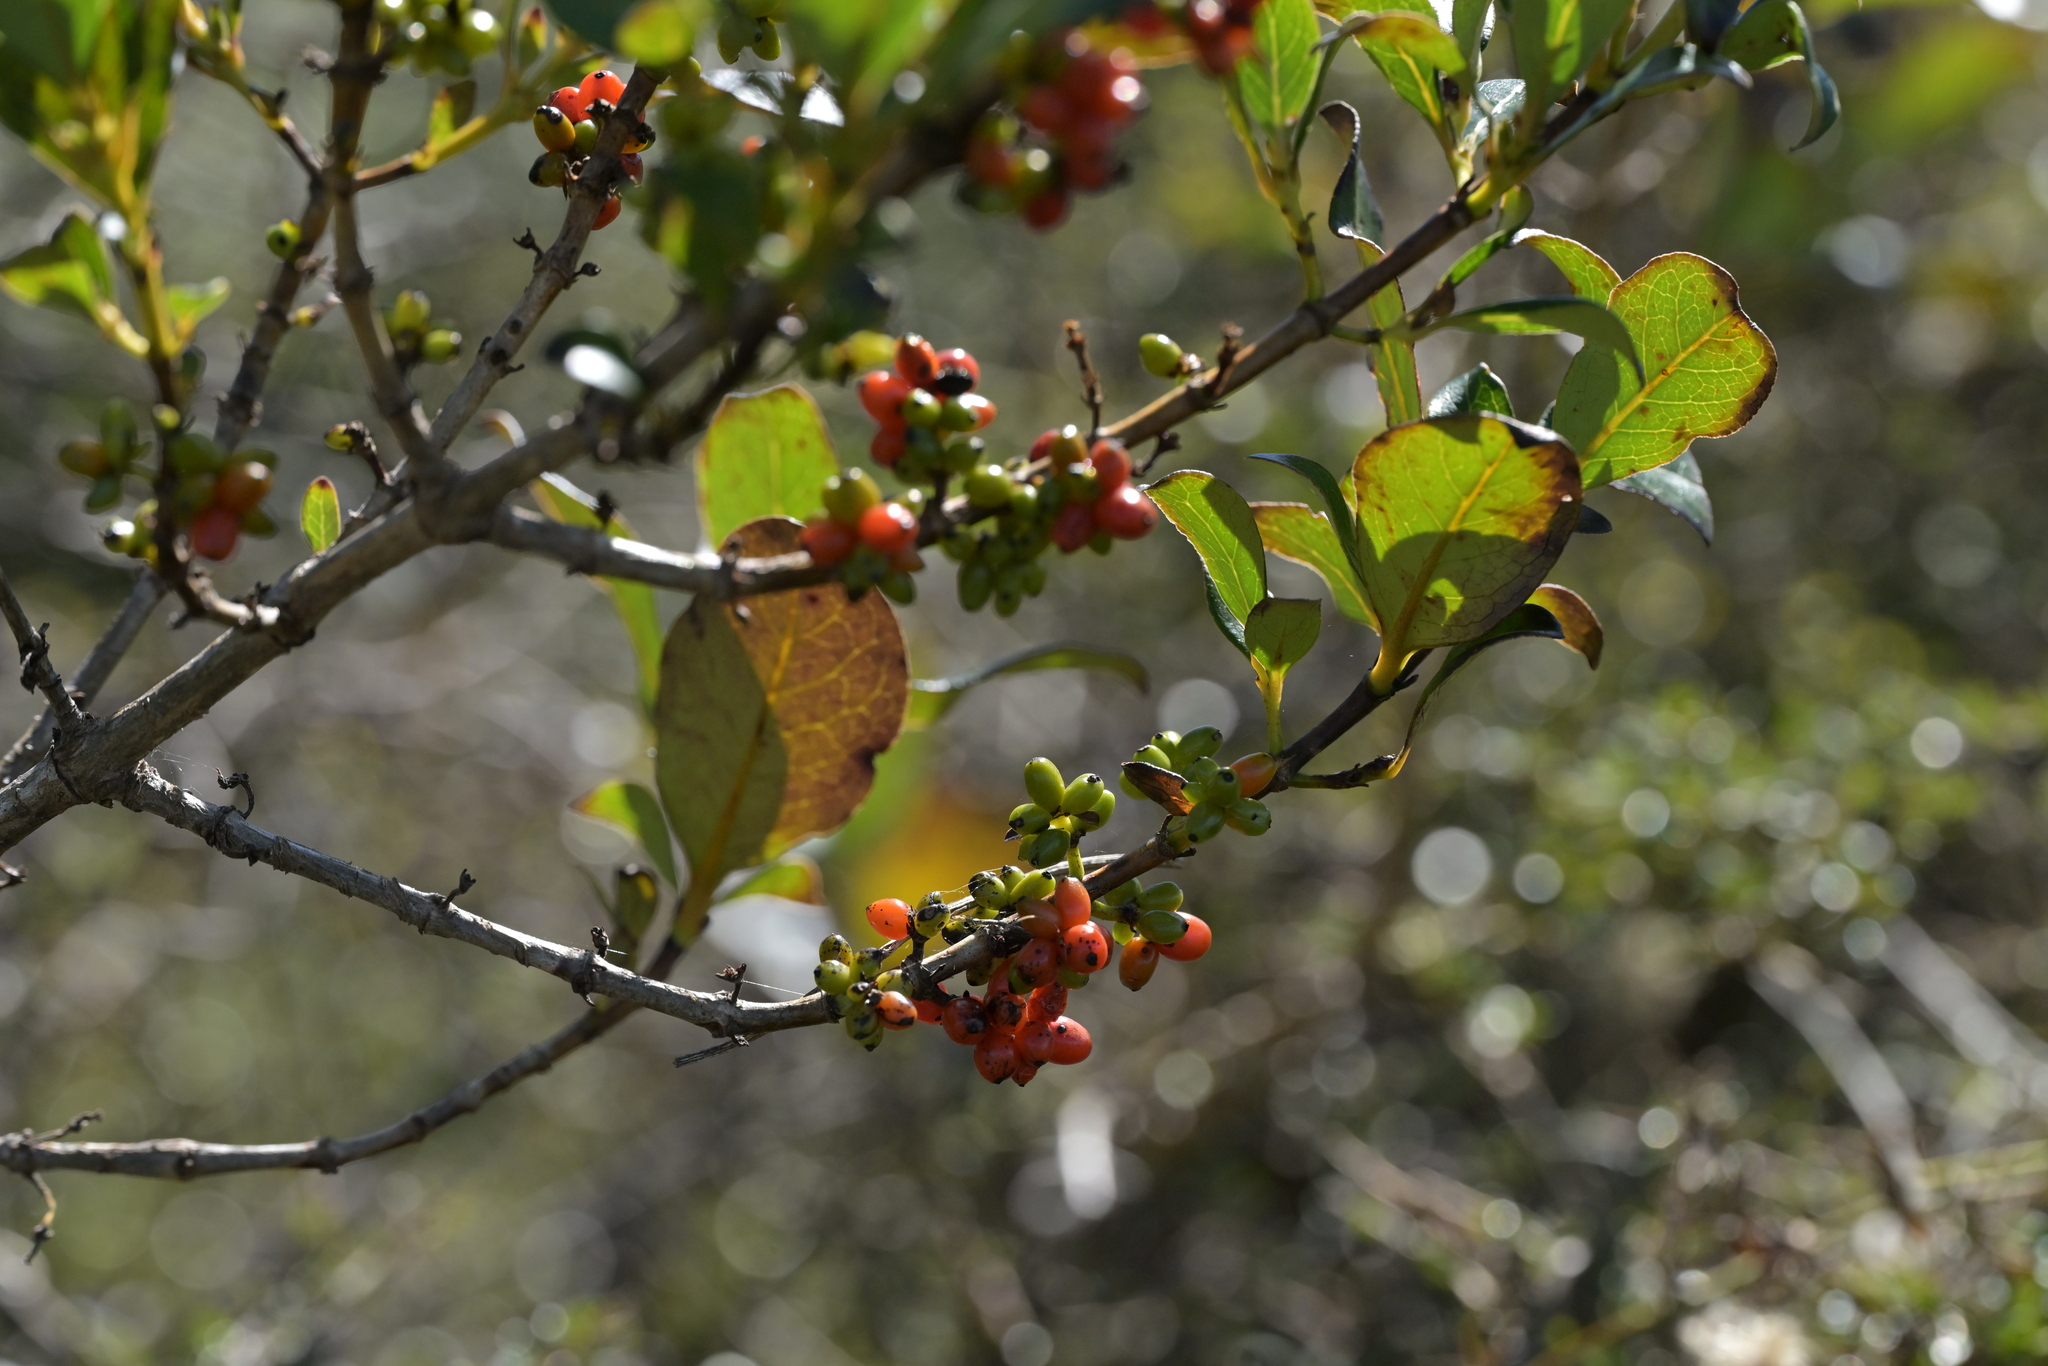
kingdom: Plantae
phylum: Tracheophyta
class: Magnoliopsida
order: Gentianales
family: Rubiaceae
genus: Coprosma
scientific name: Coprosma robusta
